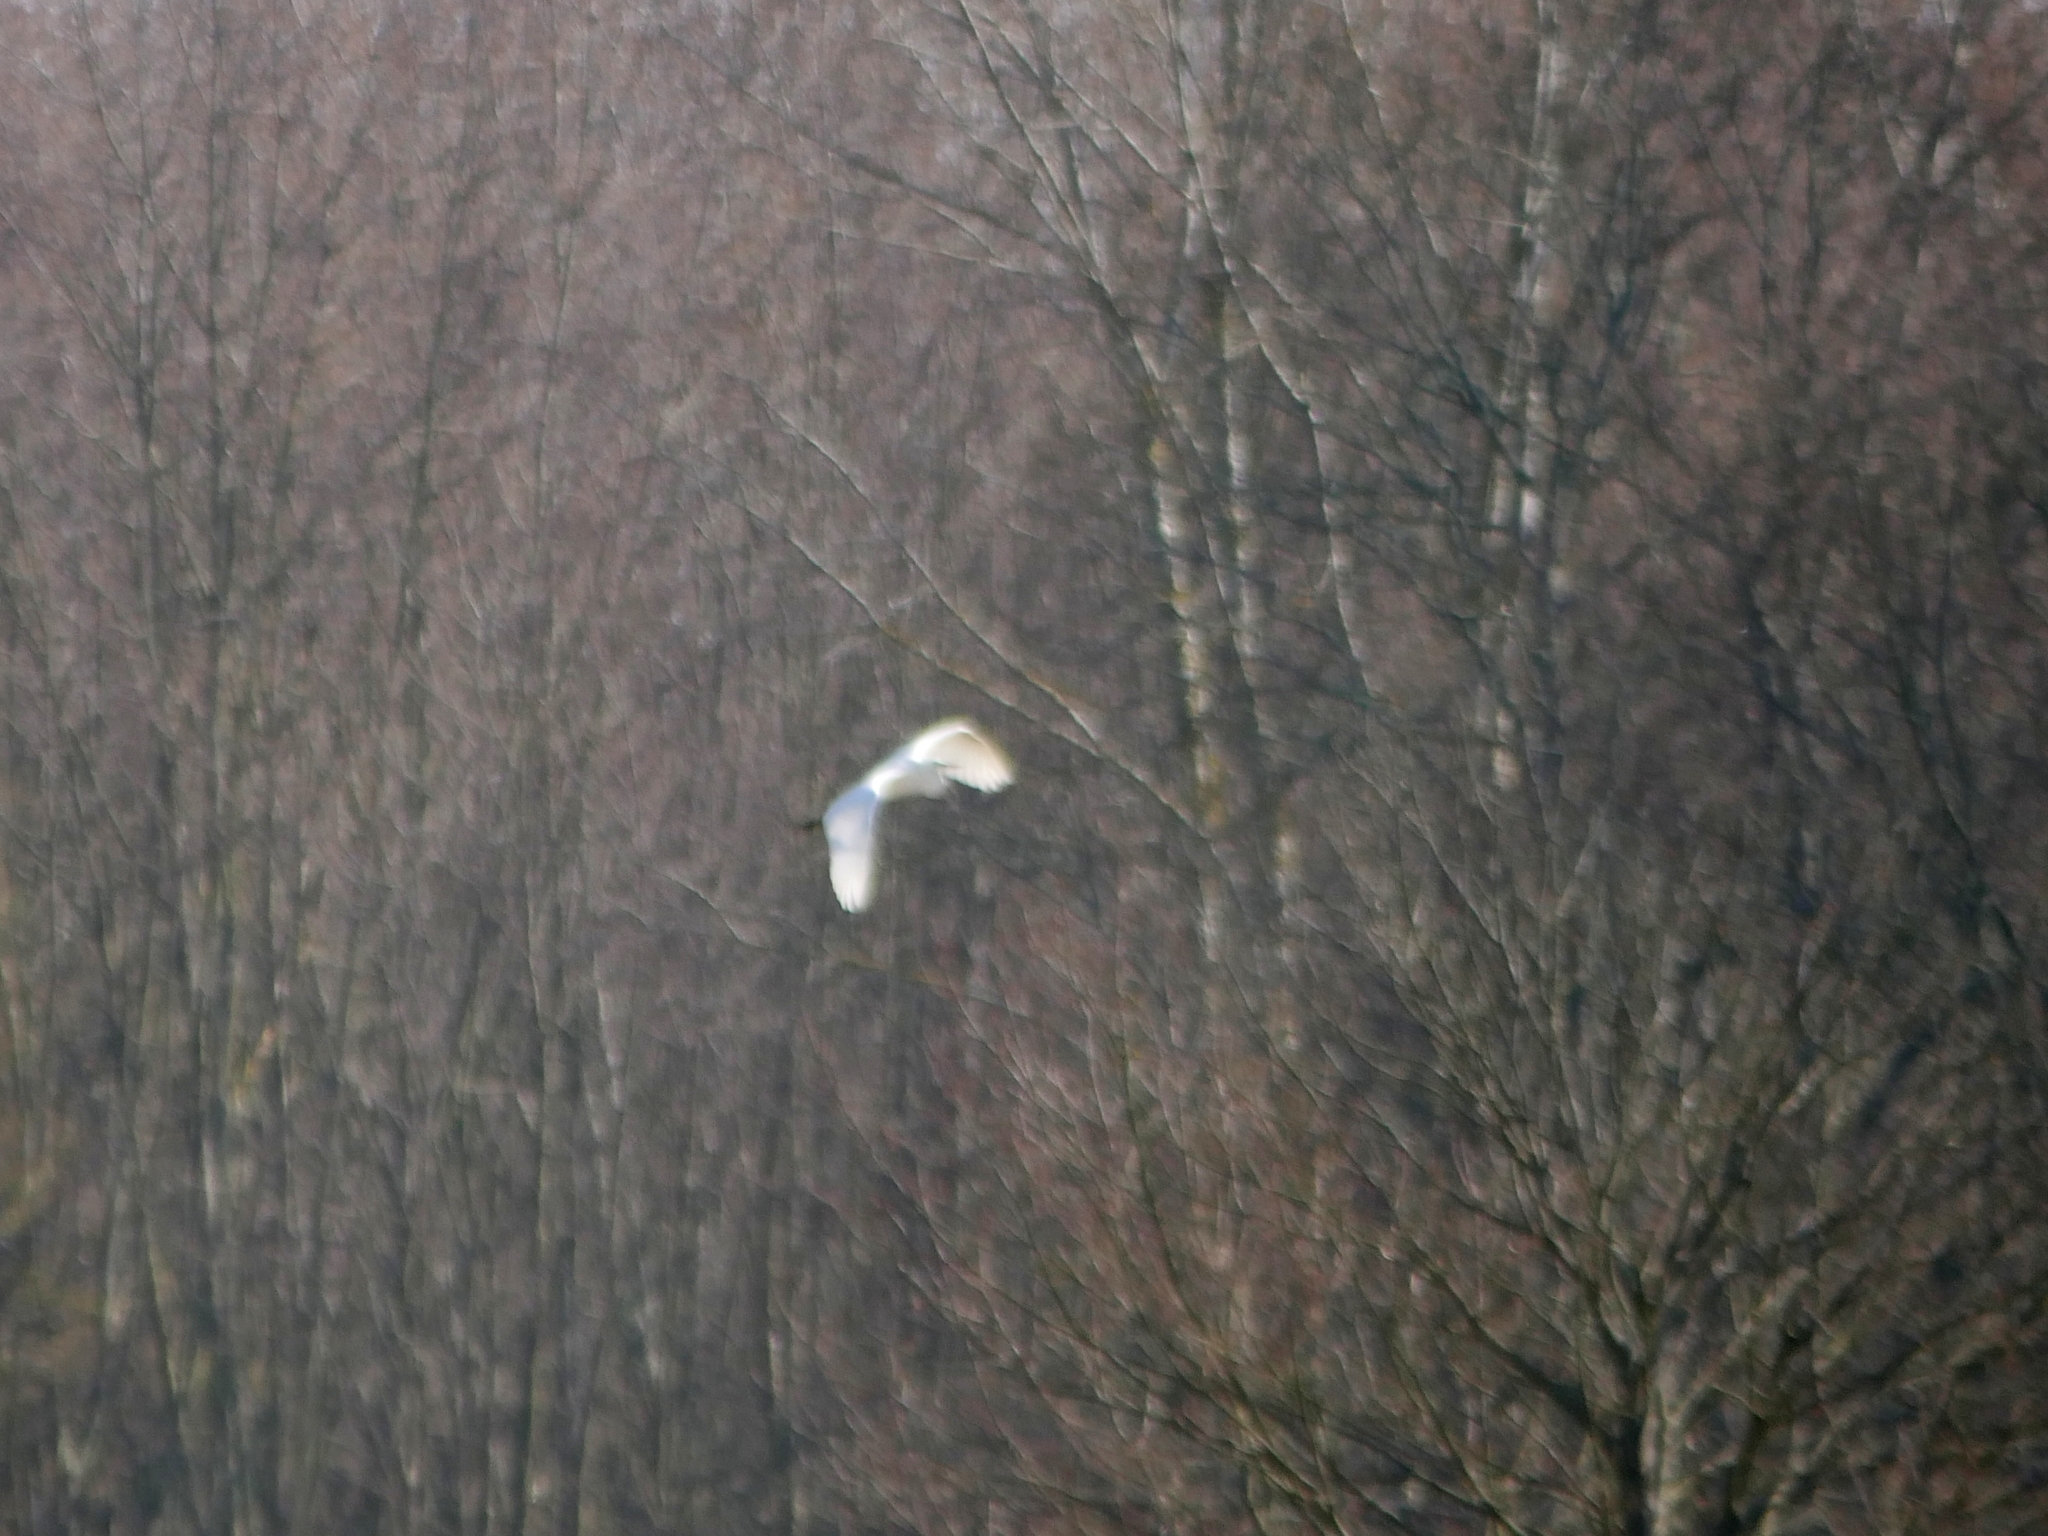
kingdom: Animalia
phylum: Chordata
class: Aves
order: Pelecaniformes
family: Ardeidae
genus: Ardea
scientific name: Ardea alba
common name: Great egret
